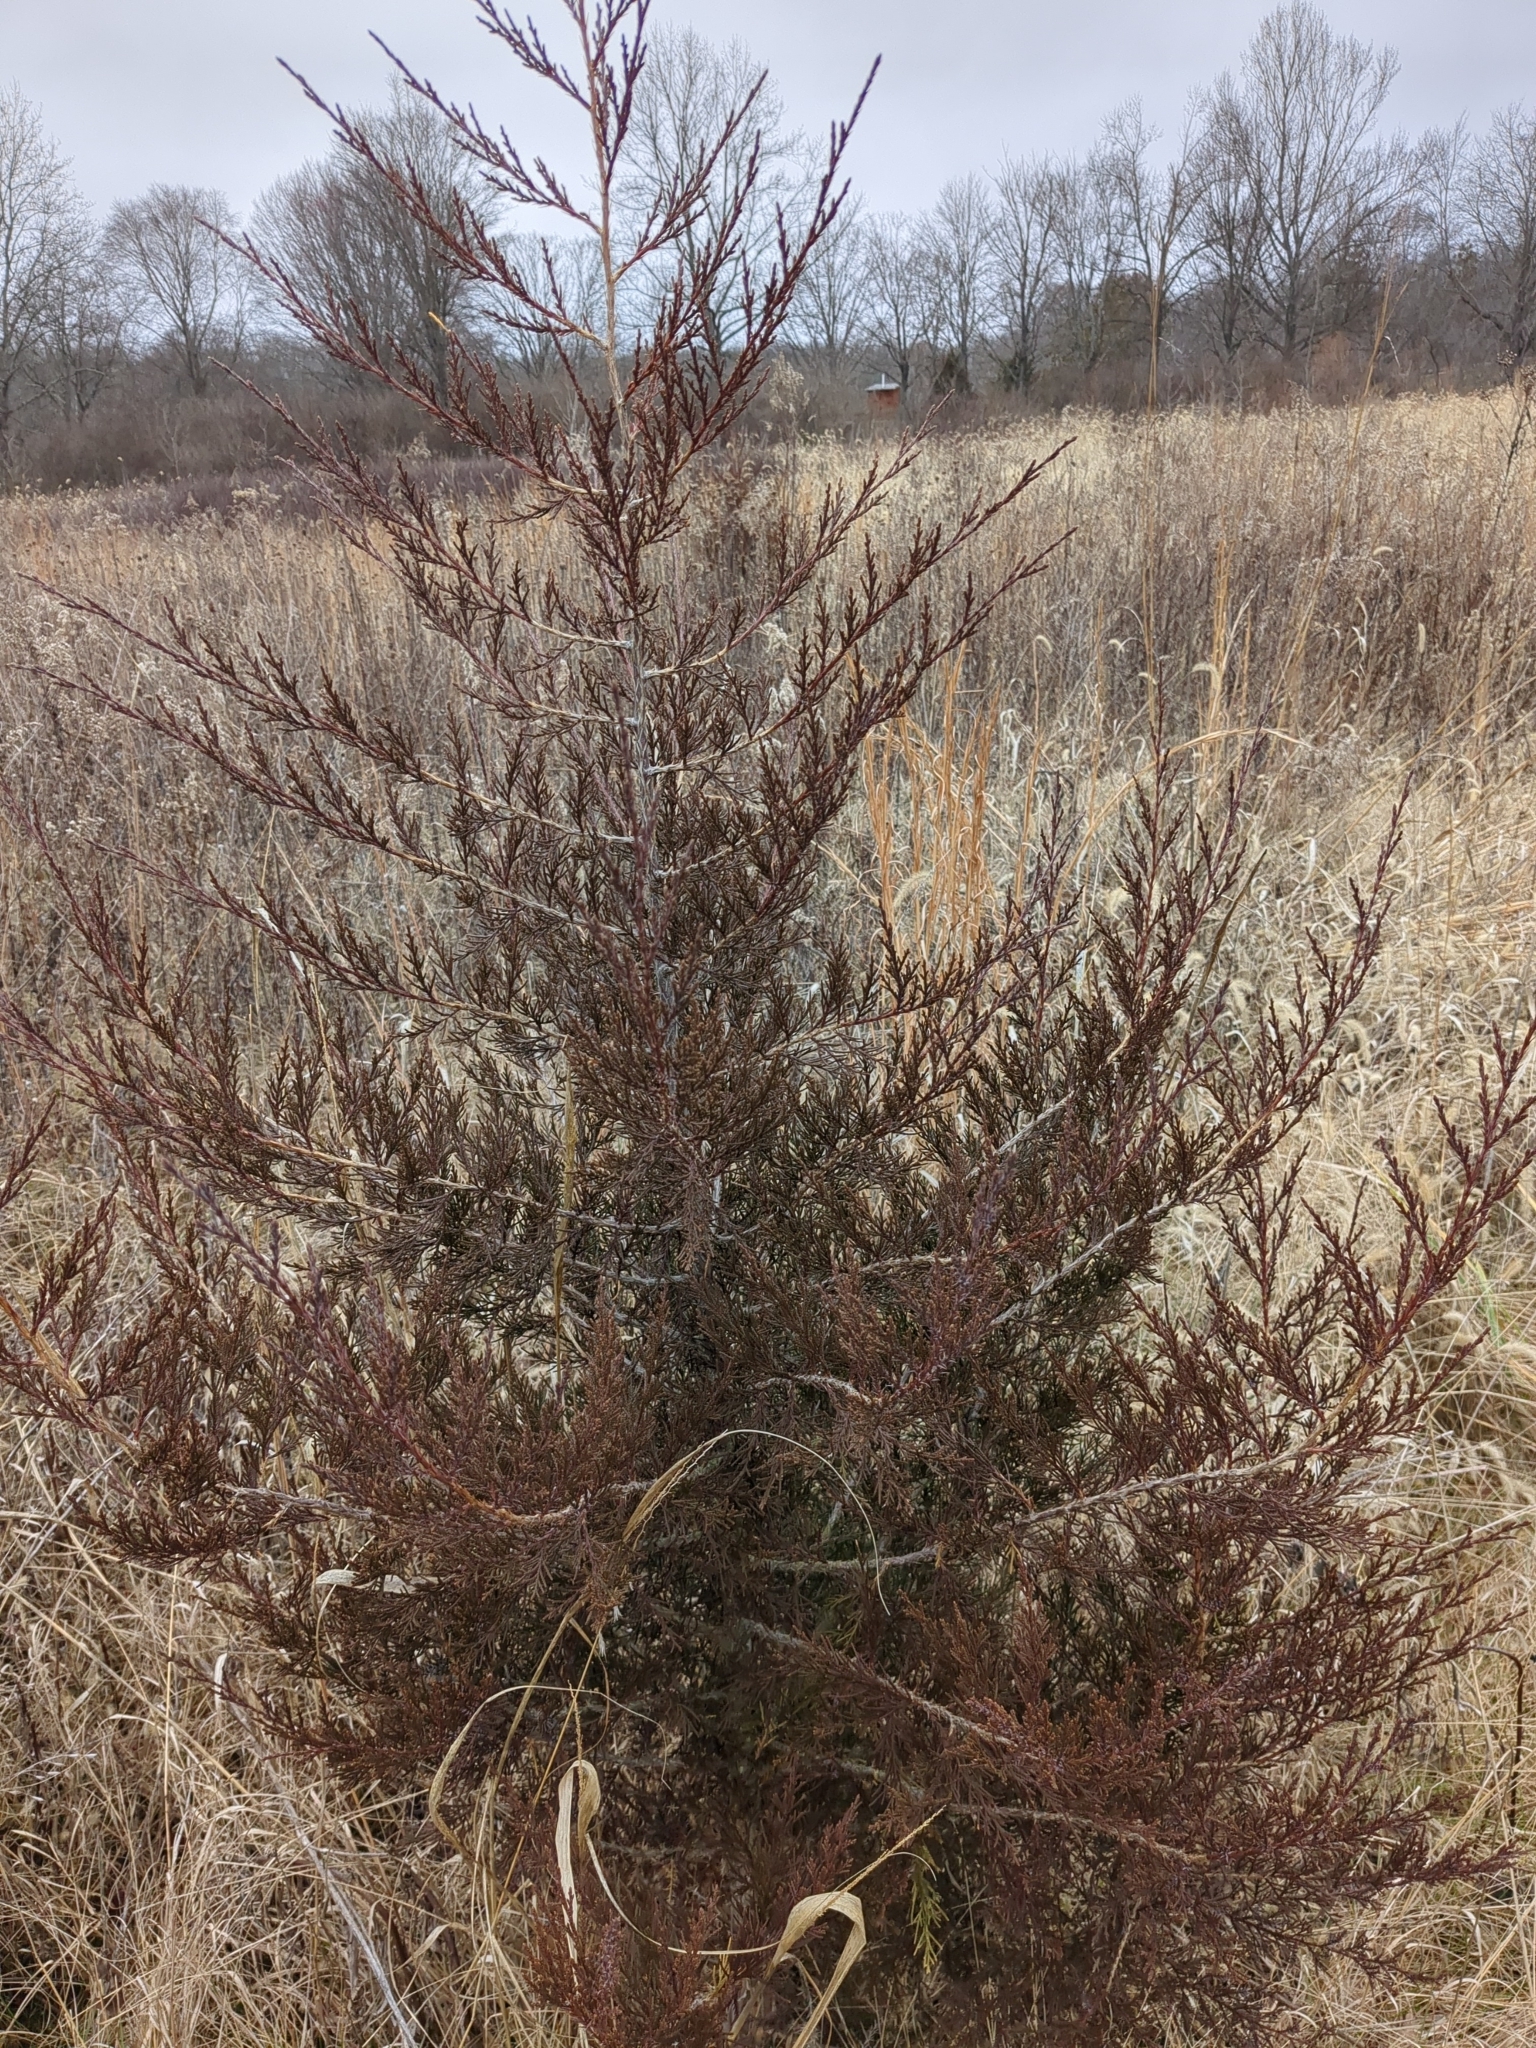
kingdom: Plantae
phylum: Tracheophyta
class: Pinopsida
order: Pinales
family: Cupressaceae
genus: Juniperus
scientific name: Juniperus virginiana
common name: Red juniper
